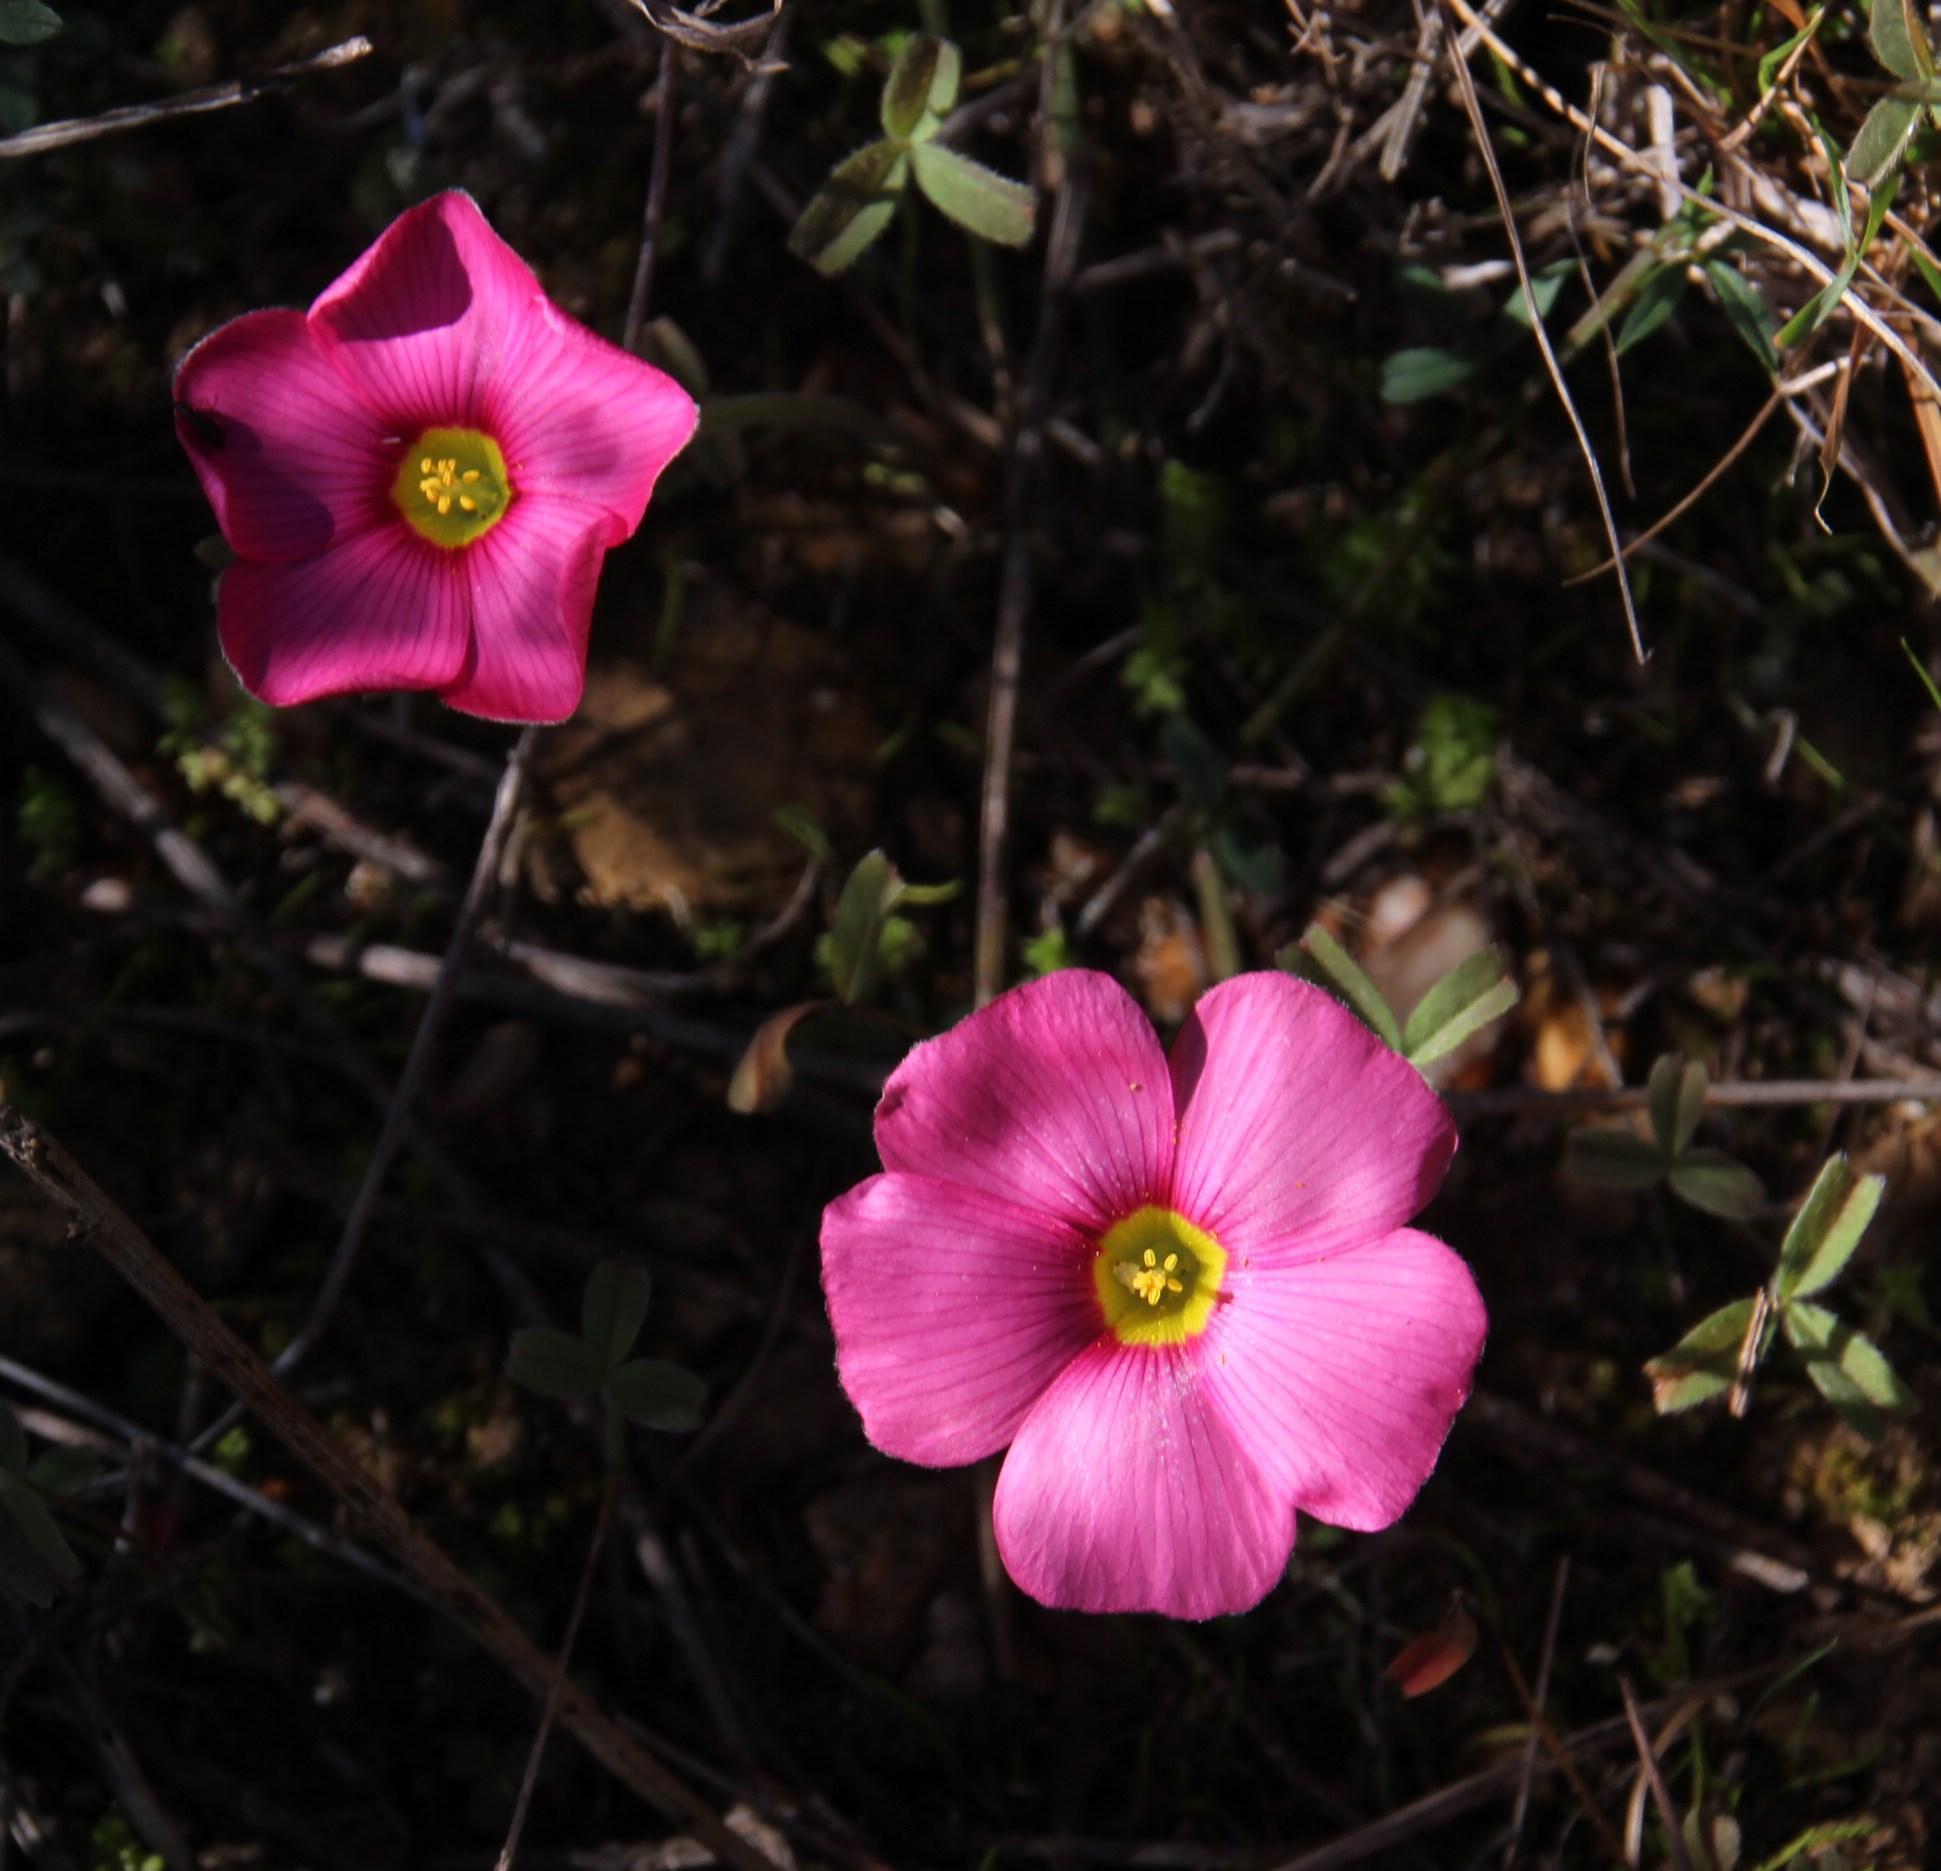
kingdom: Plantae
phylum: Tracheophyta
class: Magnoliopsida
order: Oxalidales
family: Oxalidaceae
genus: Oxalis
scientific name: Oxalis obtusa
